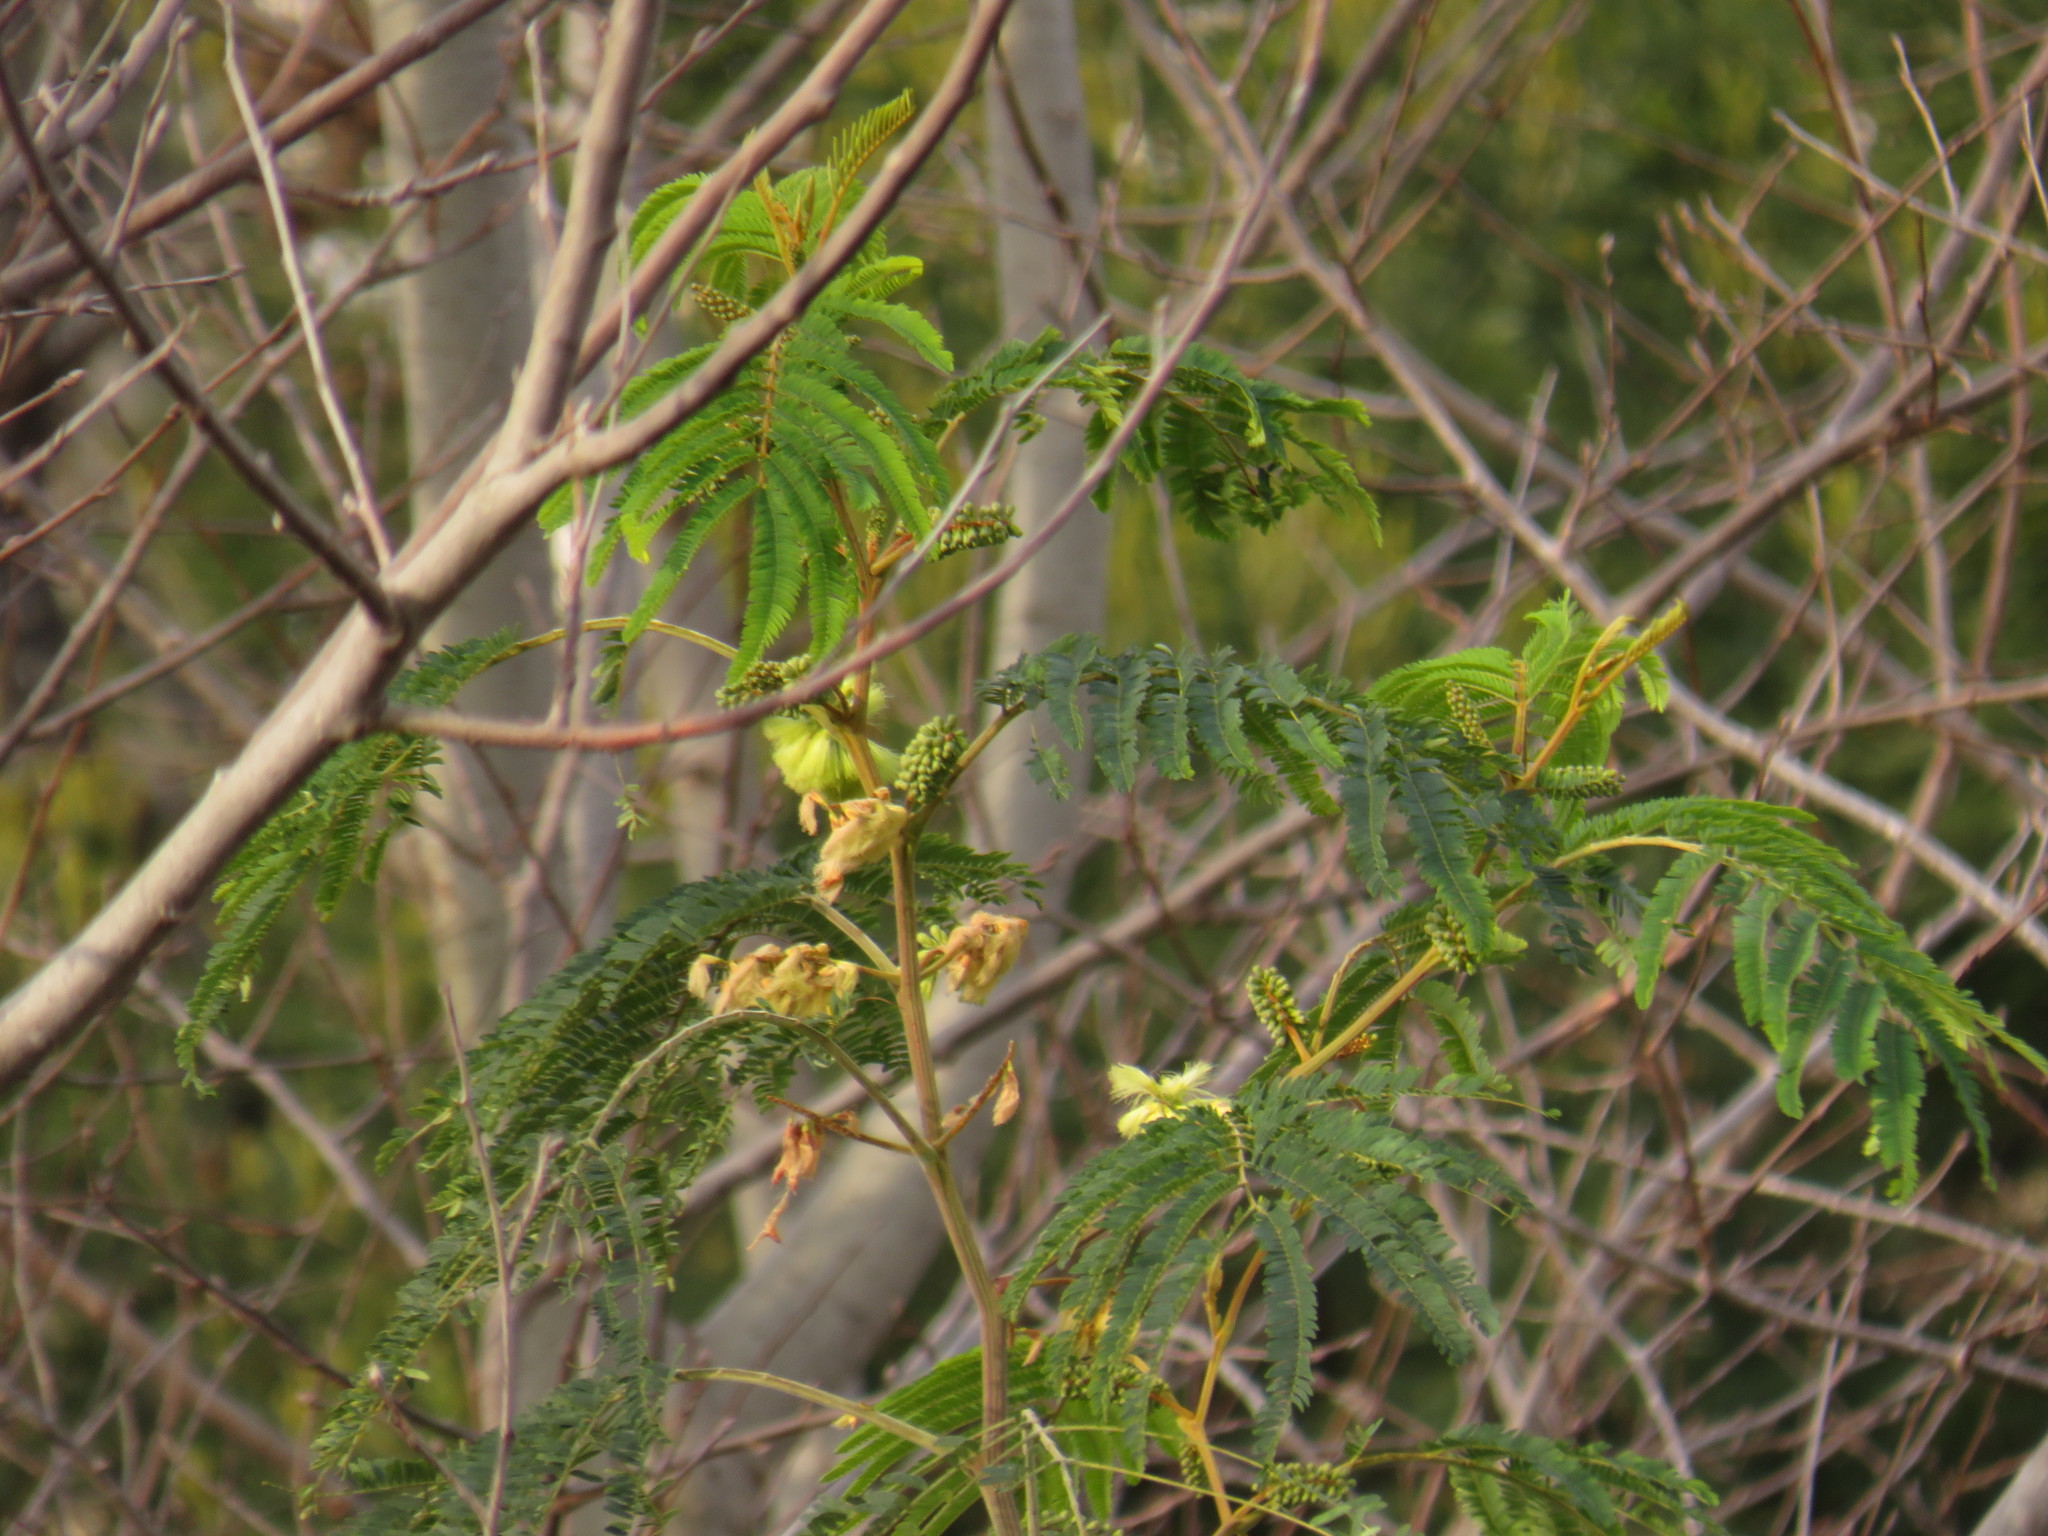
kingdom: Plantae
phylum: Tracheophyta
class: Magnoliopsida
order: Fabales
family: Fabaceae
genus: Paraserianthes
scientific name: Paraserianthes lophantha
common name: Plume albizia
